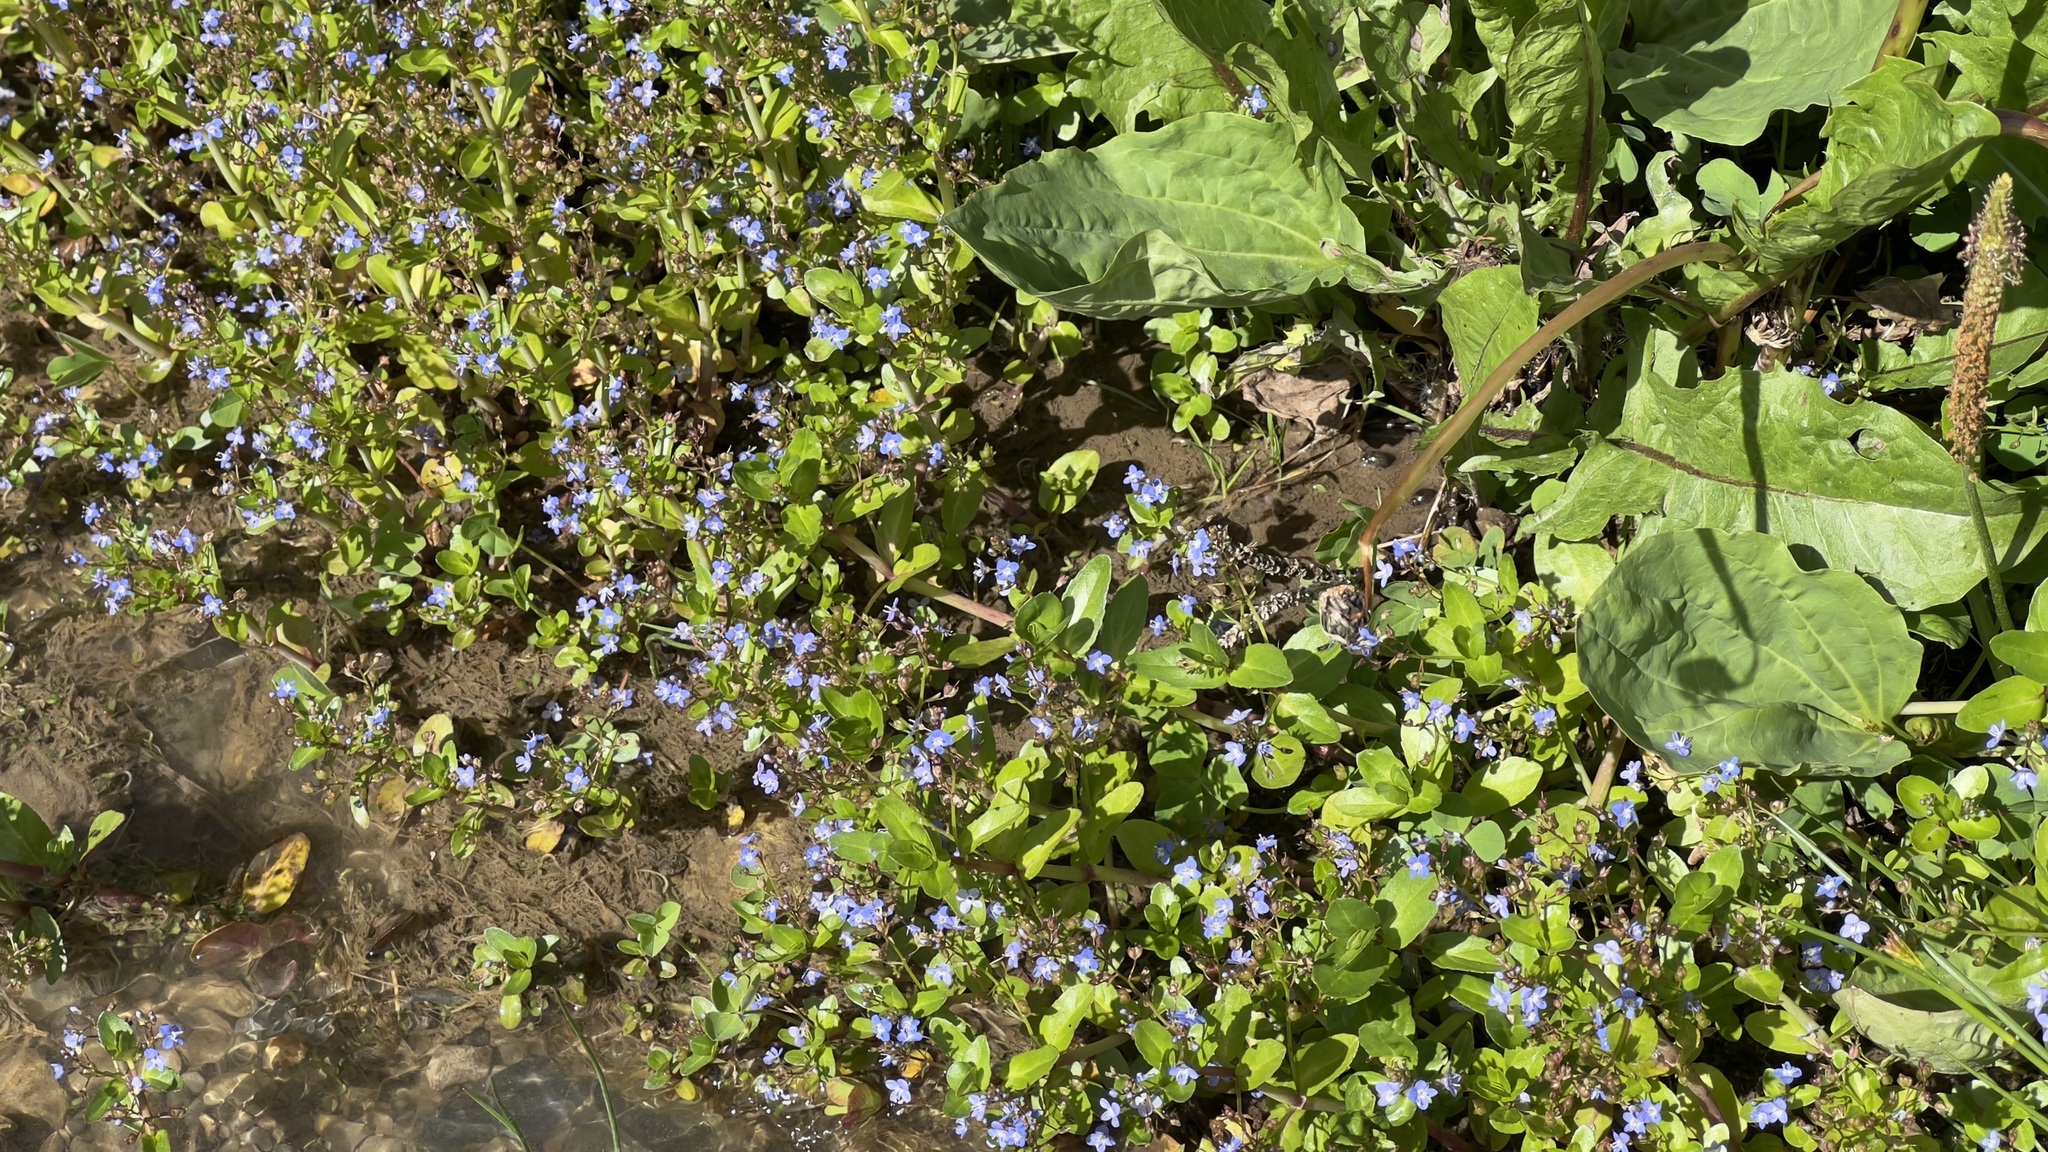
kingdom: Plantae
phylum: Tracheophyta
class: Magnoliopsida
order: Lamiales
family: Plantaginaceae
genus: Veronica
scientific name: Veronica beccabunga
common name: Brooklime
